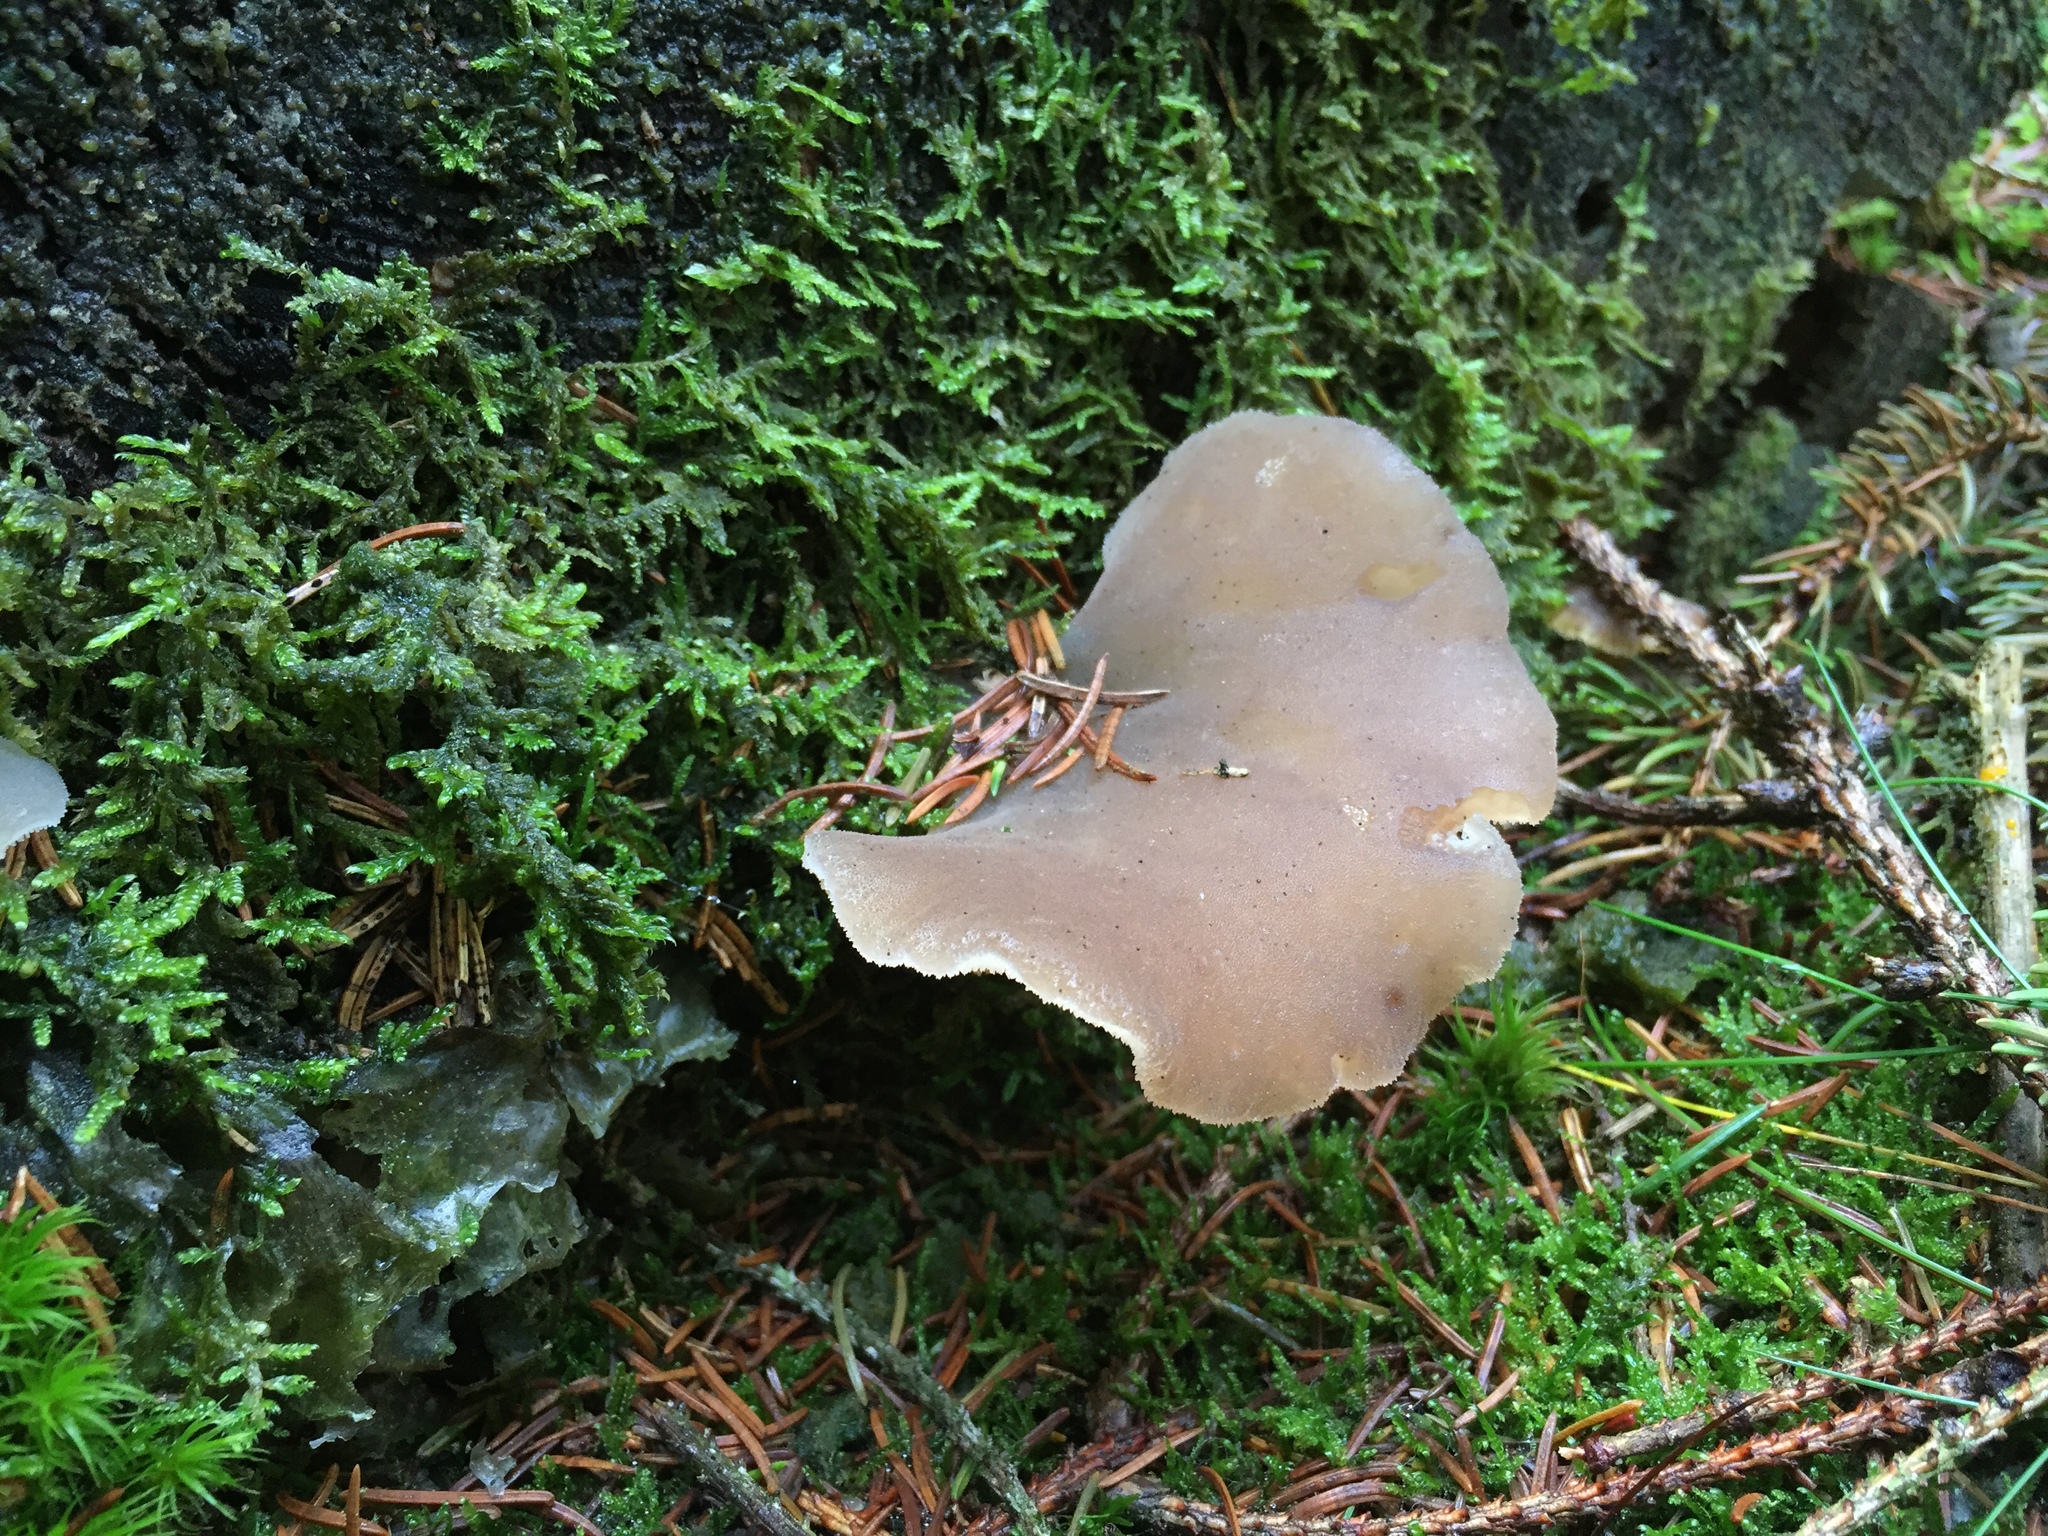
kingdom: Fungi
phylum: Basidiomycota
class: Agaricomycetes
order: Auriculariales
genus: Pseudohydnum
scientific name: Pseudohydnum gelatinosum
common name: Jelly tongue
